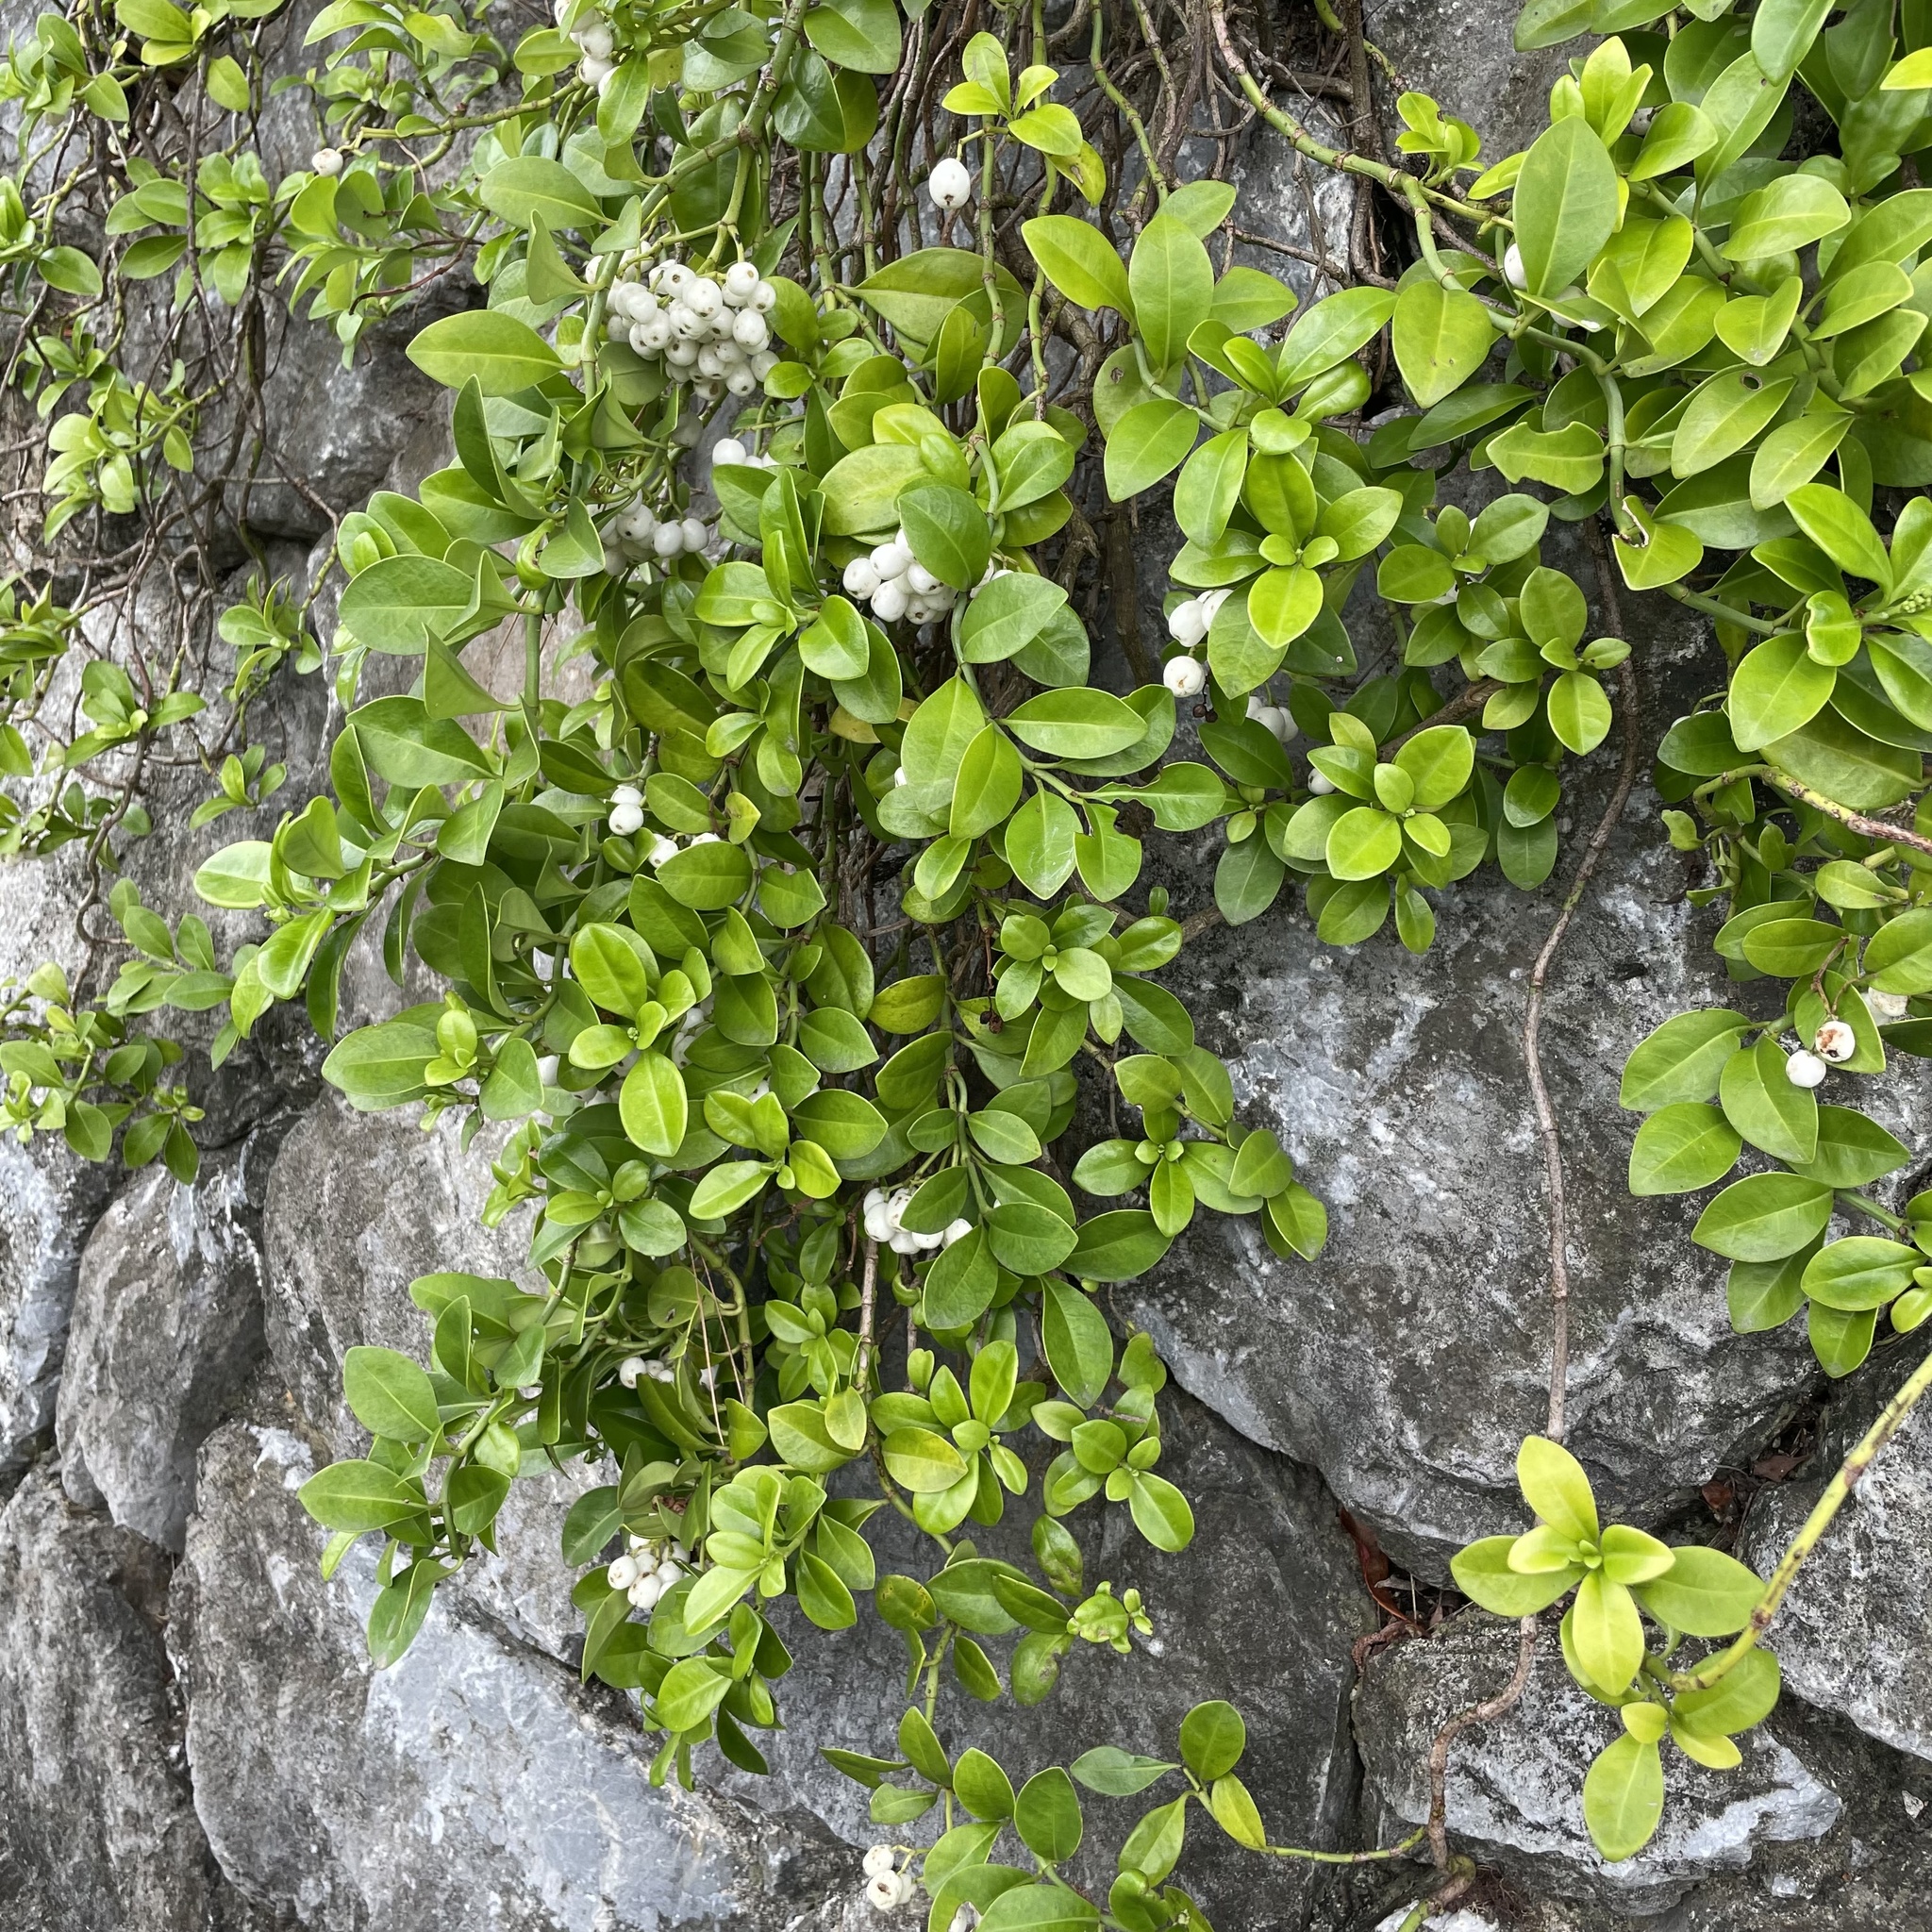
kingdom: Plantae
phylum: Tracheophyta
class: Magnoliopsida
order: Gentianales
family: Rubiaceae
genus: Psychotria
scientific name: Psychotria serpens
